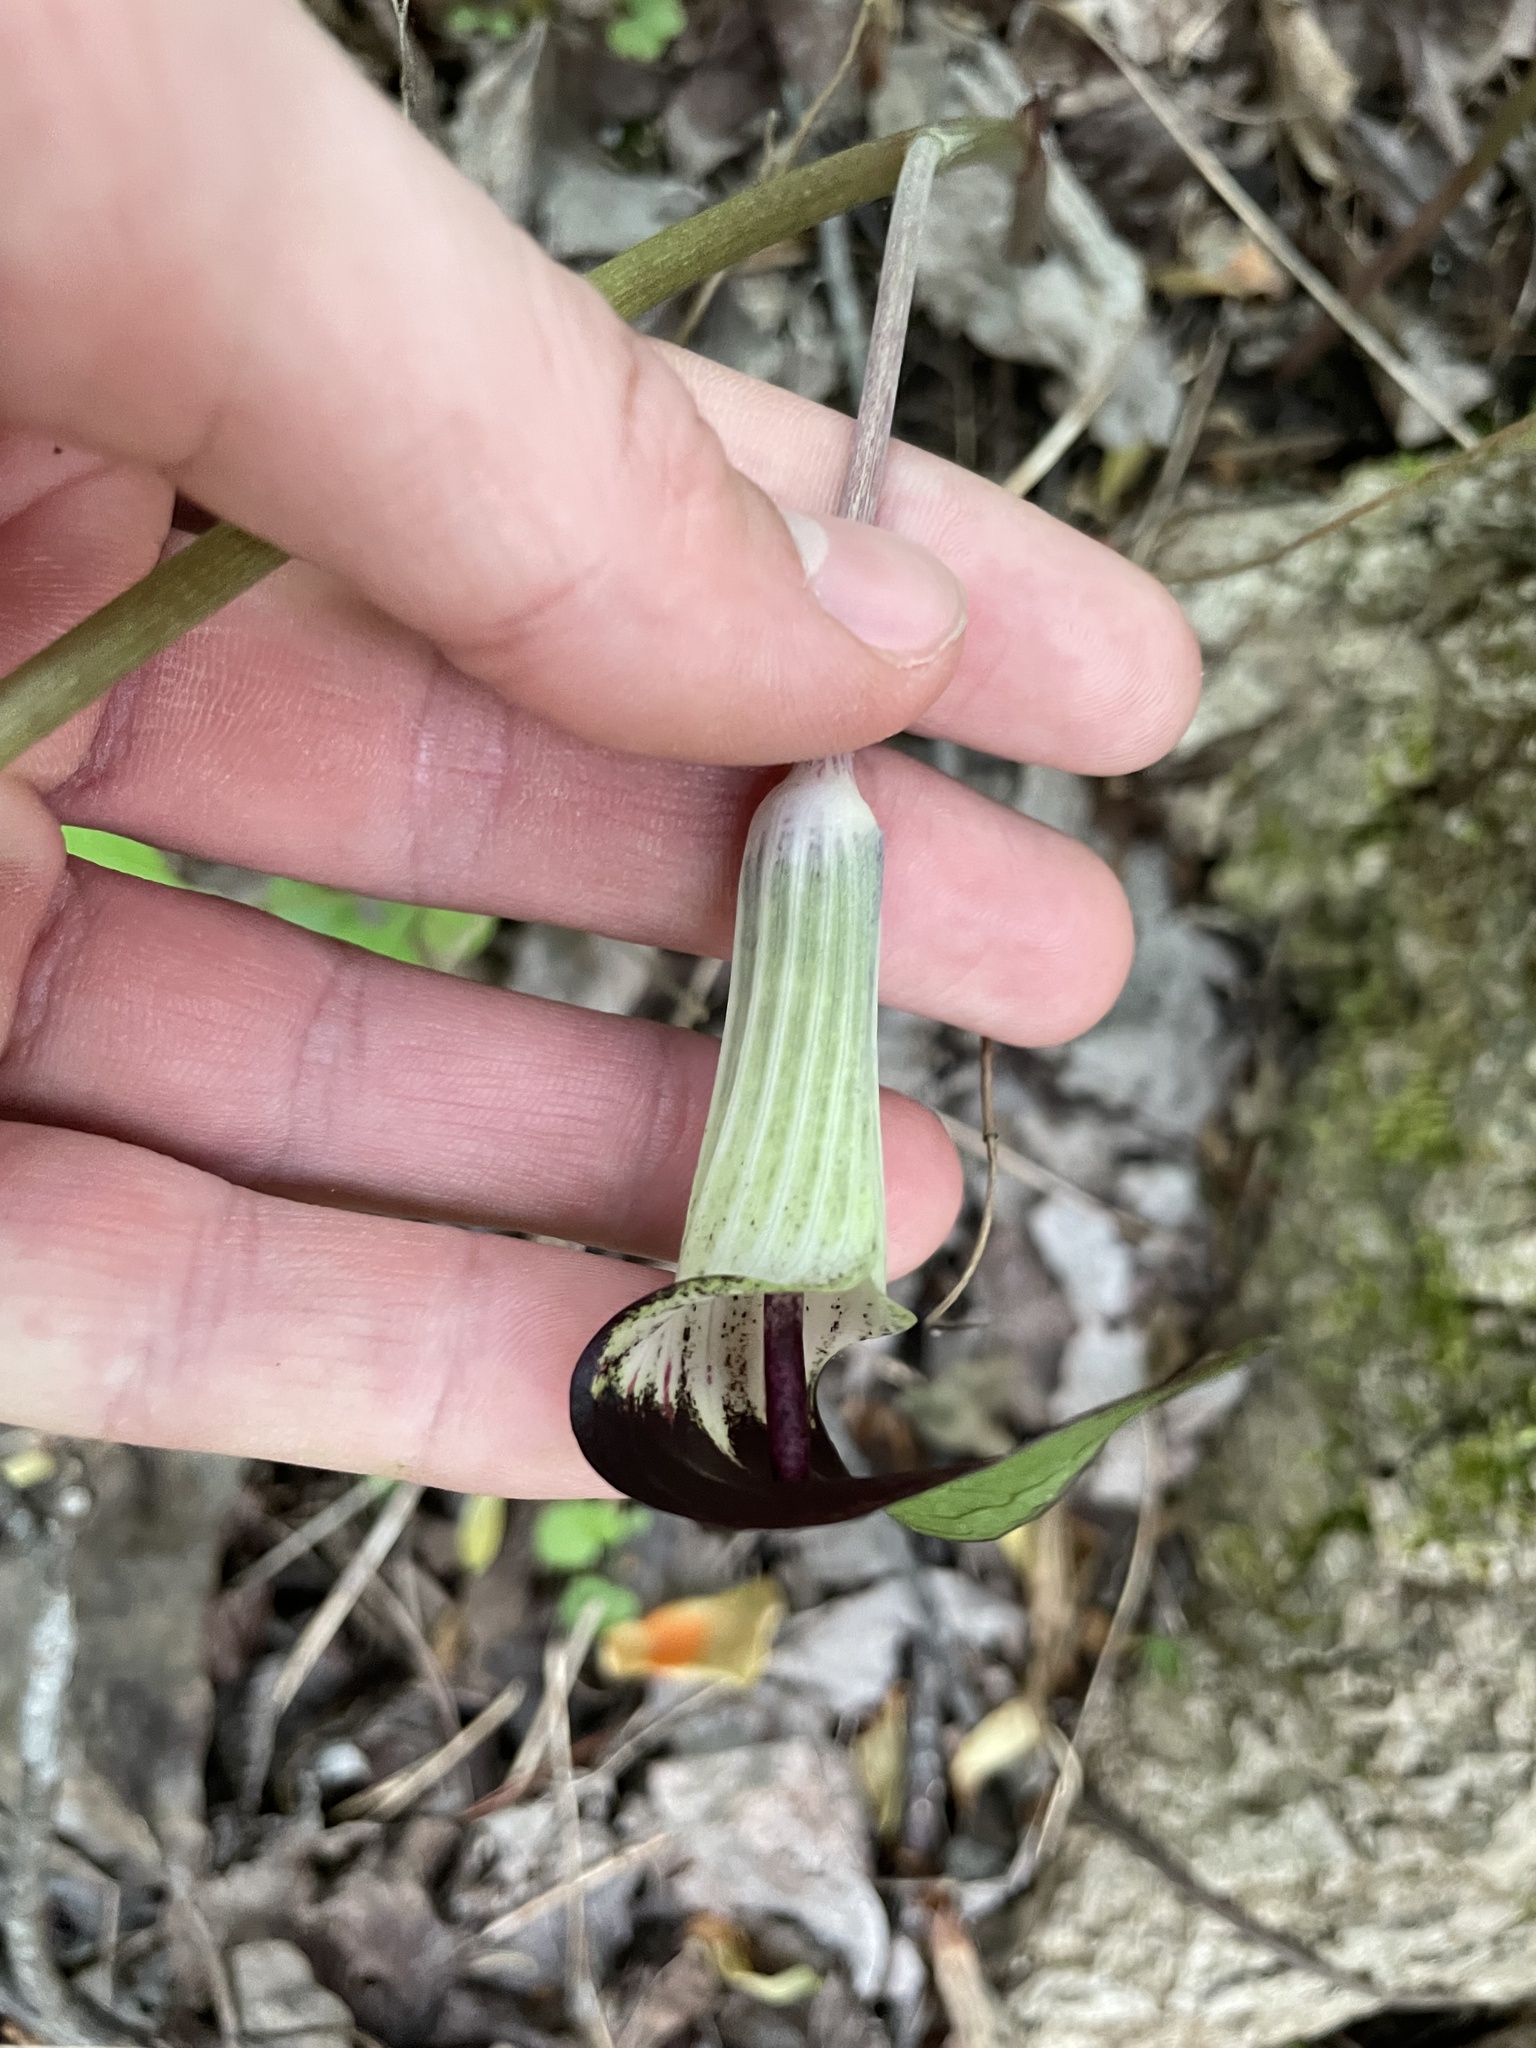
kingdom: Plantae
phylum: Tracheophyta
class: Liliopsida
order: Alismatales
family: Araceae
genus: Arisaema
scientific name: Arisaema triphyllum
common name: Jack-in-the-pulpit
